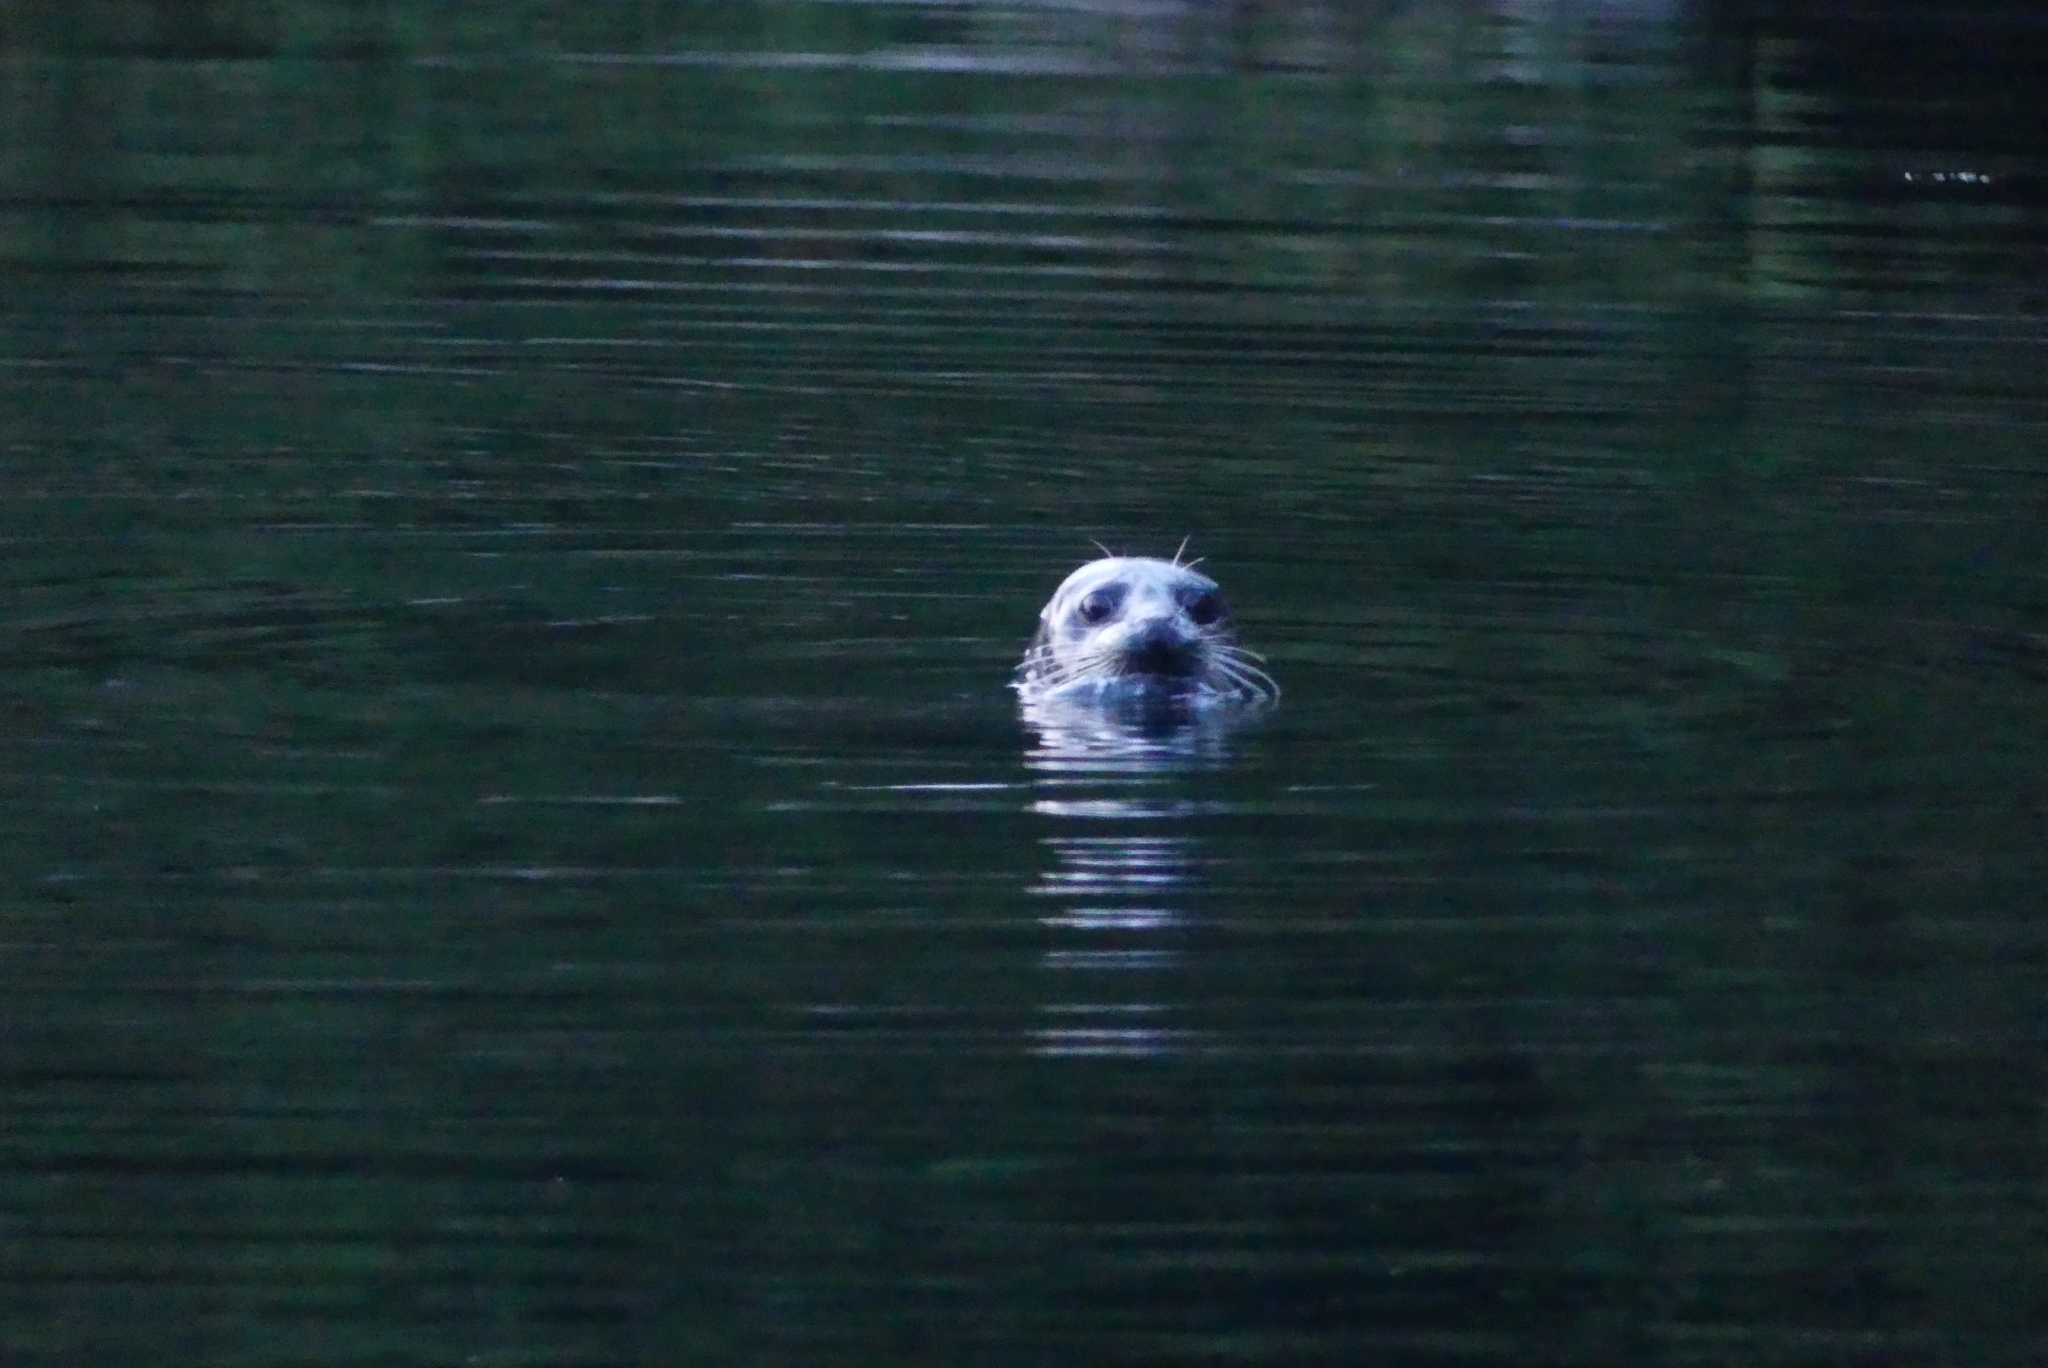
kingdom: Animalia
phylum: Chordata
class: Mammalia
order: Carnivora
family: Phocidae
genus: Phoca
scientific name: Phoca vitulina
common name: Harbor seal
